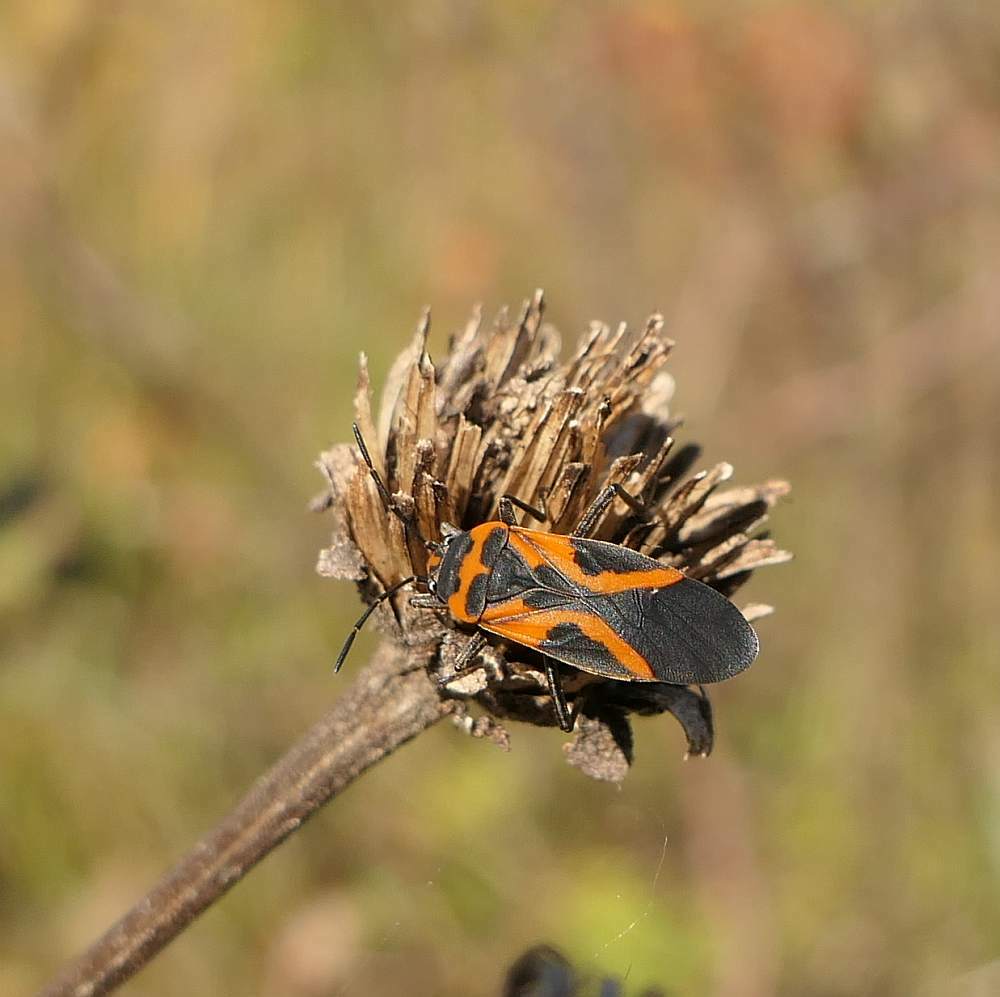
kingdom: Animalia
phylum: Arthropoda
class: Insecta
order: Hemiptera
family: Lygaeidae
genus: Lygaeus
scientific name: Lygaeus turcicus
